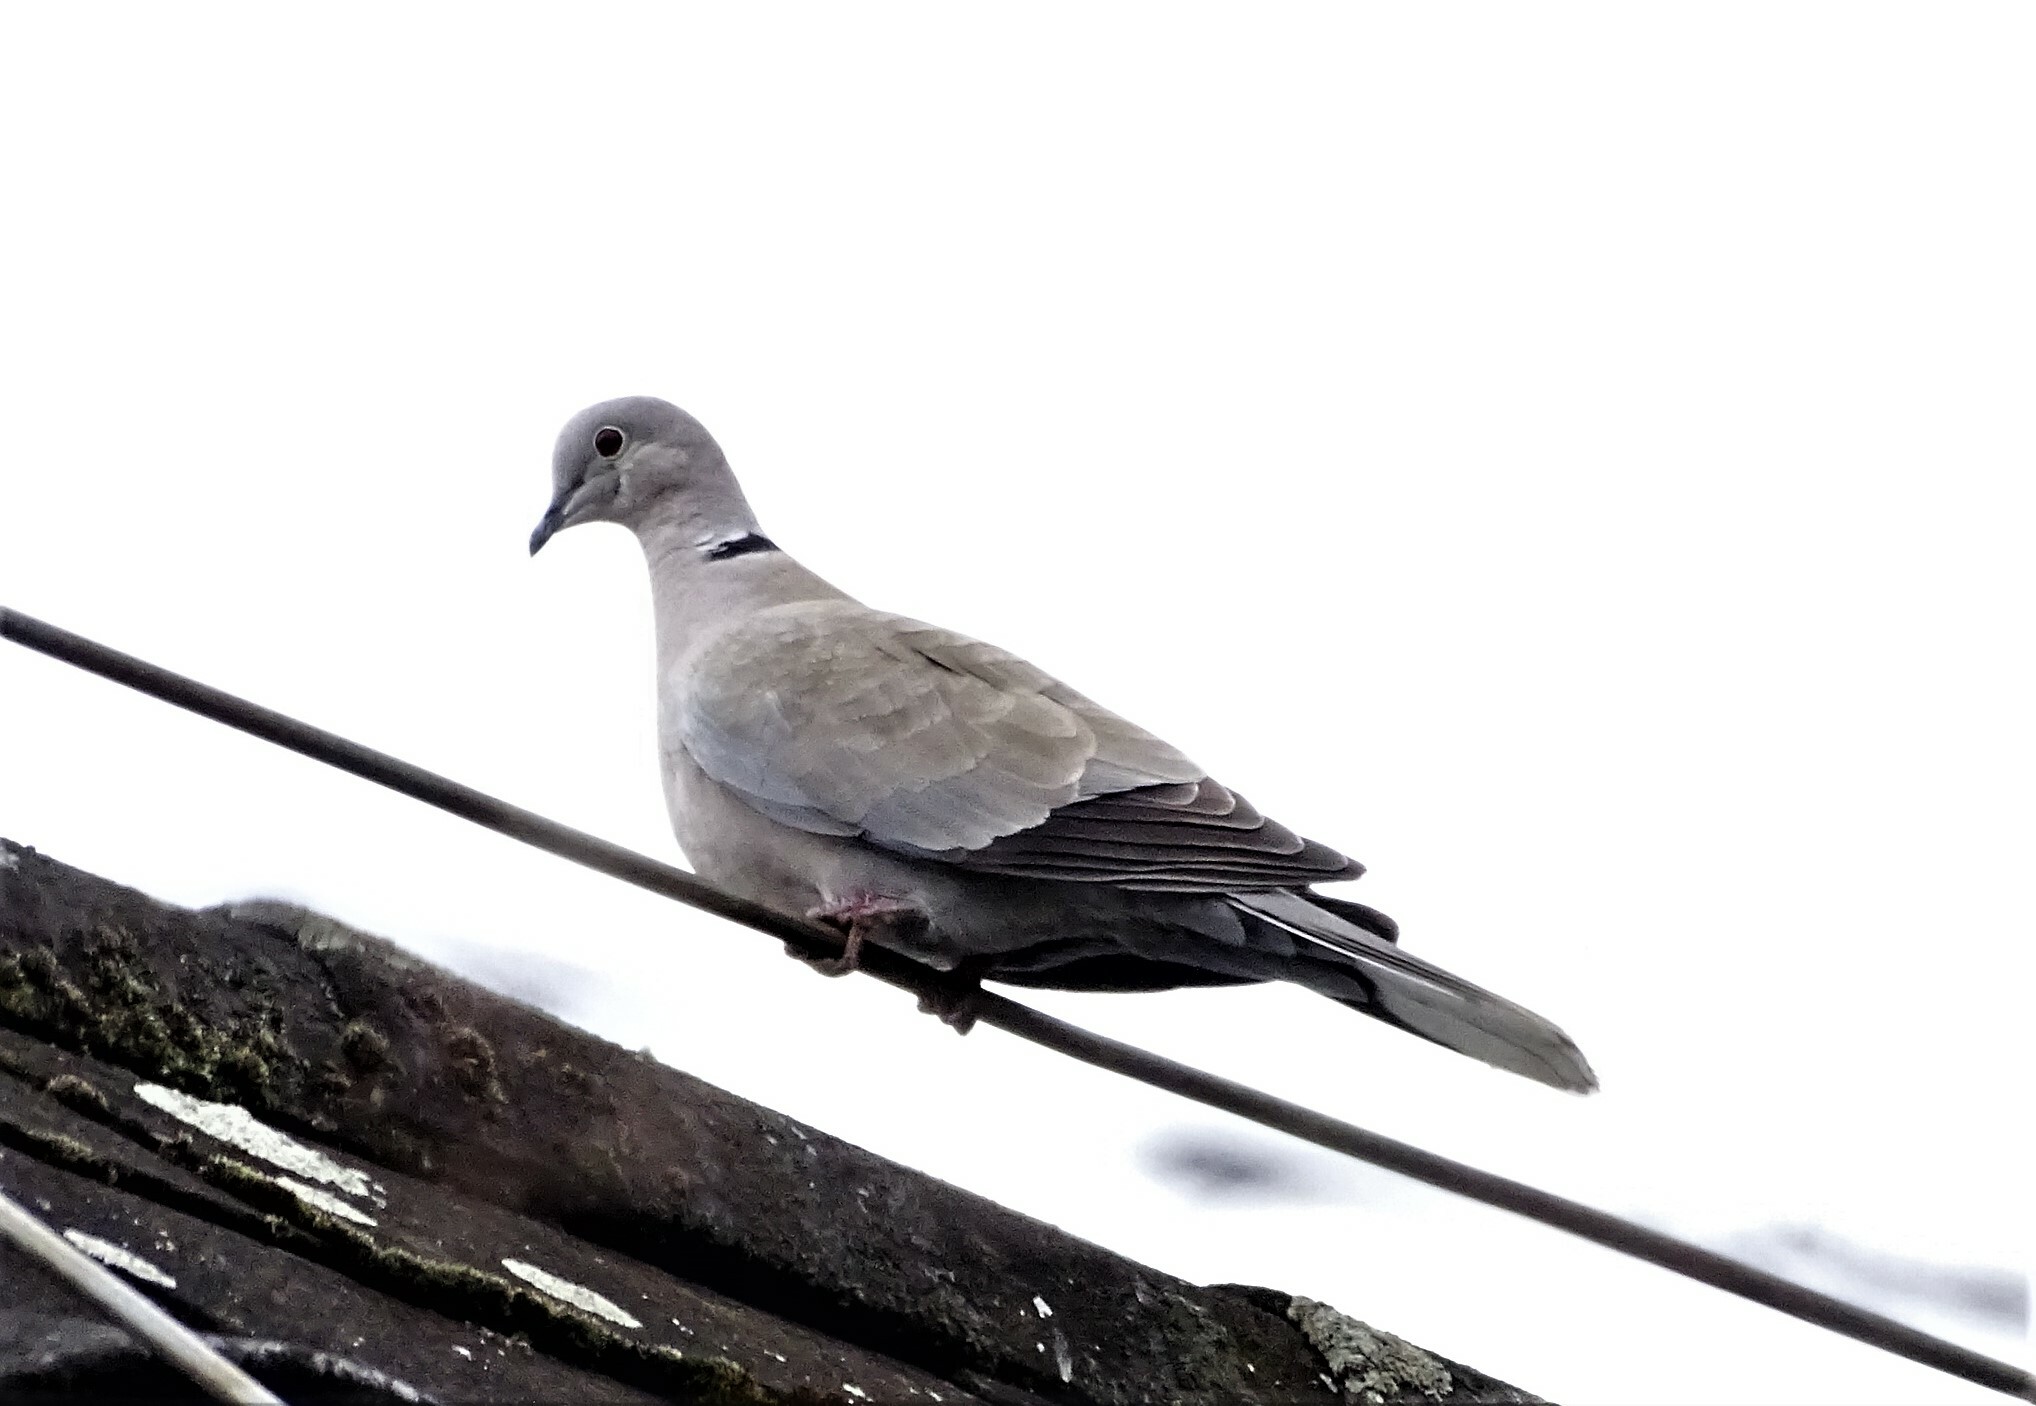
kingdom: Animalia
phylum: Chordata
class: Aves
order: Columbiformes
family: Columbidae
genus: Streptopelia
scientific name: Streptopelia decaocto
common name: Eurasian collared dove
